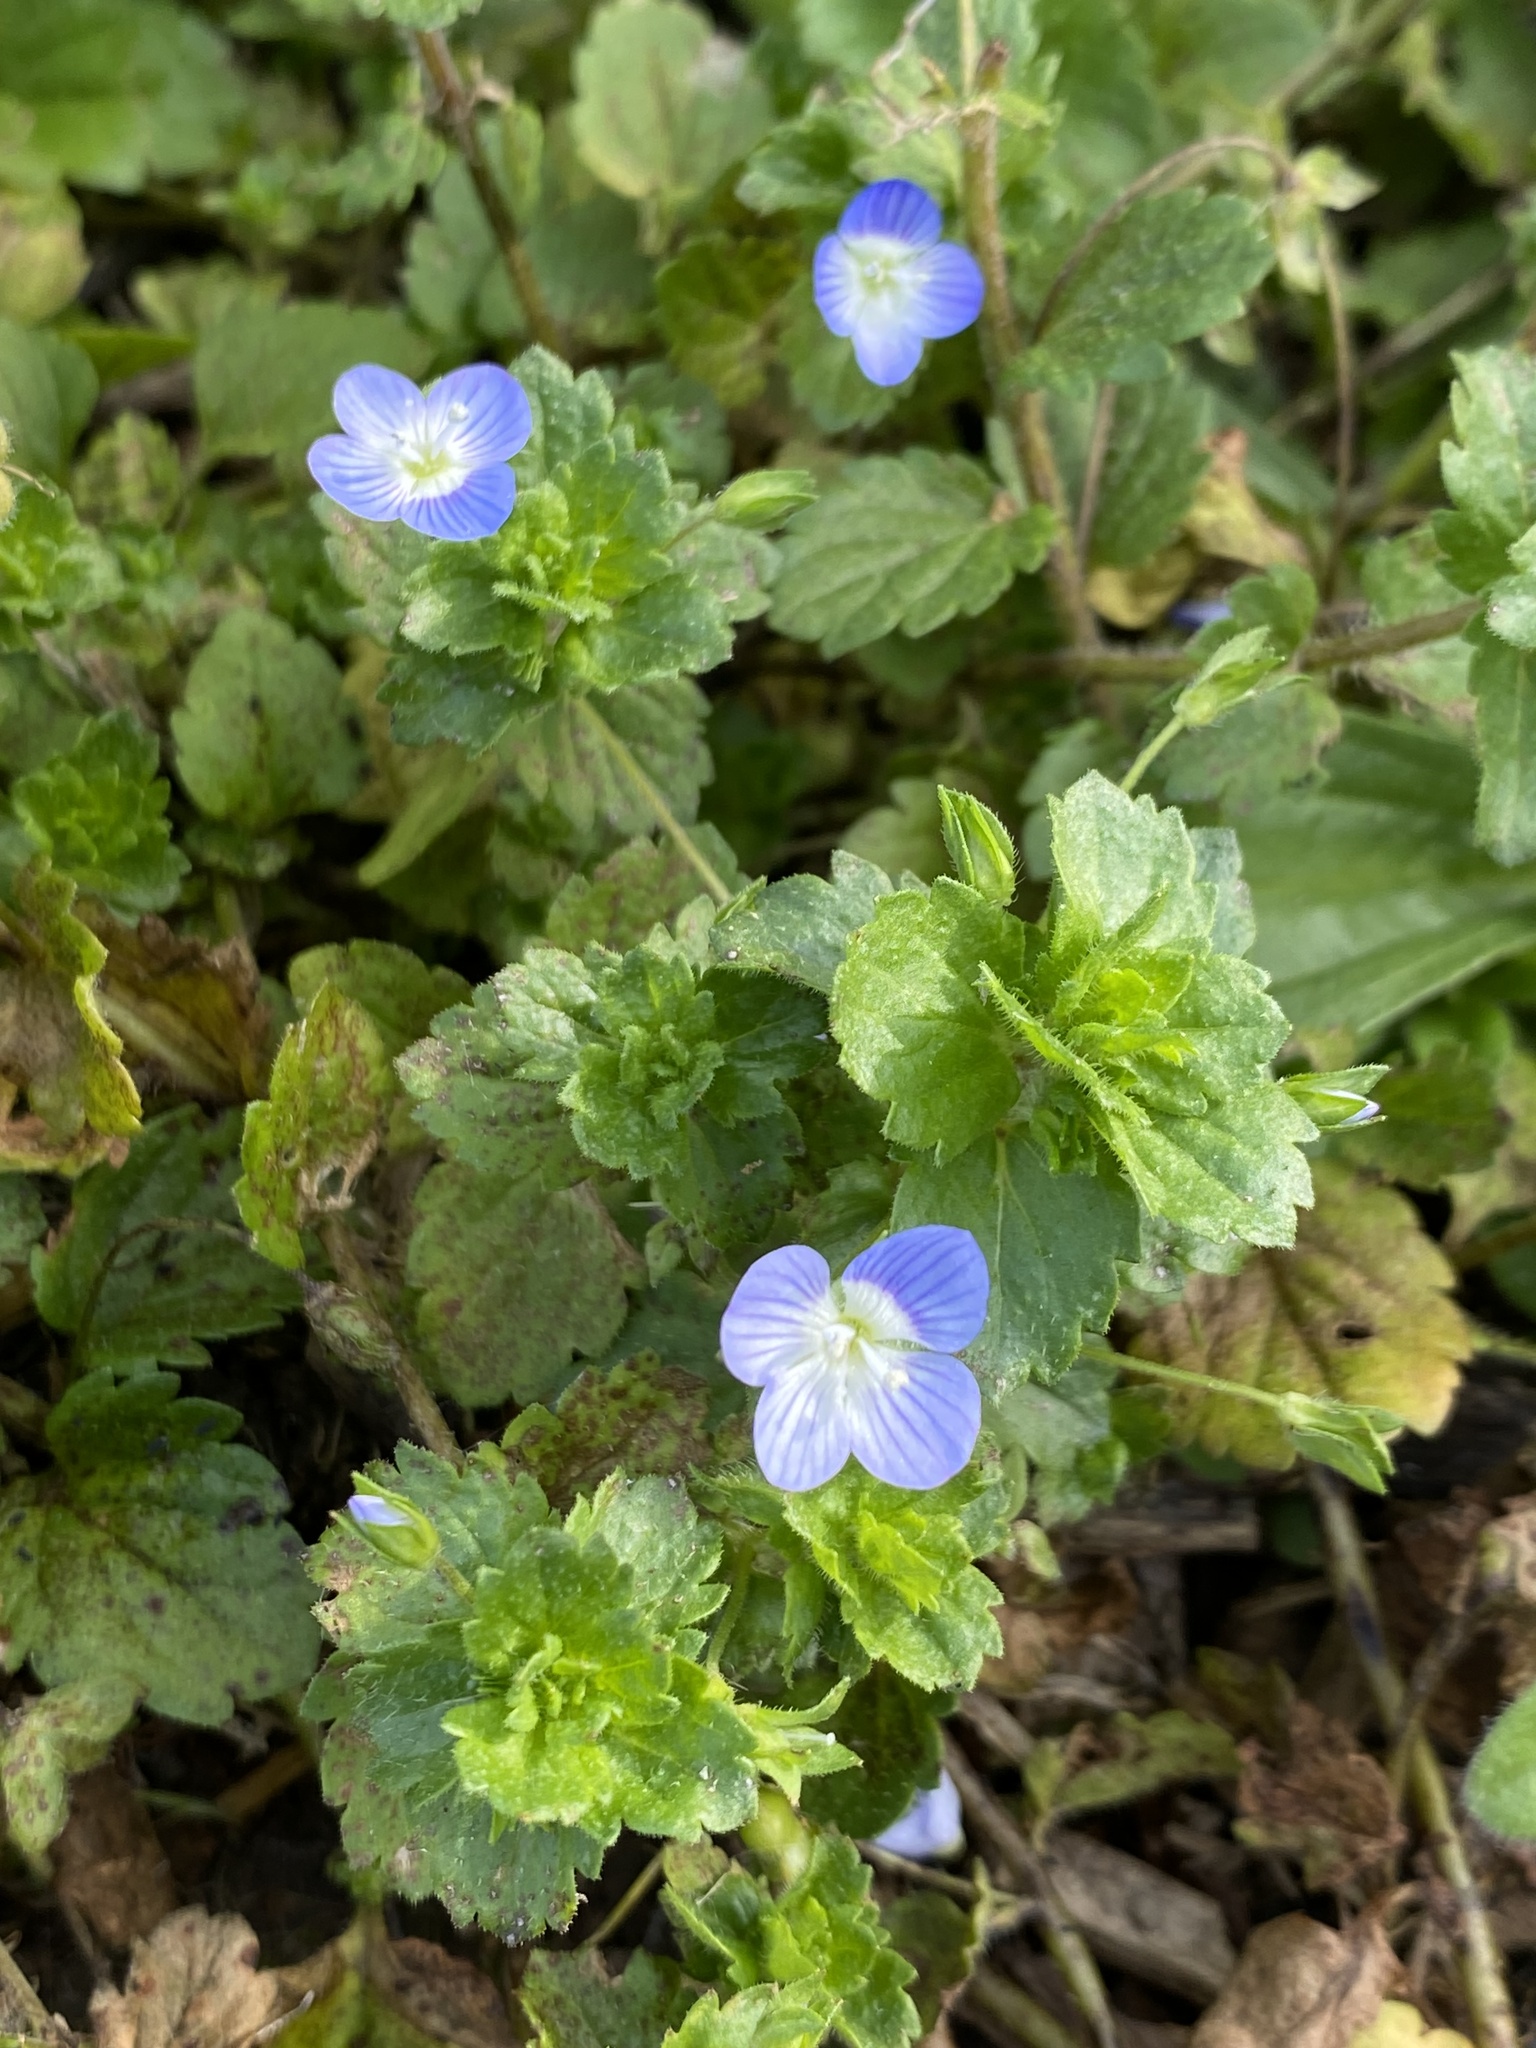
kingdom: Plantae
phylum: Tracheophyta
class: Magnoliopsida
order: Lamiales
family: Plantaginaceae
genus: Veronica
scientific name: Veronica persica
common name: Common field-speedwell
